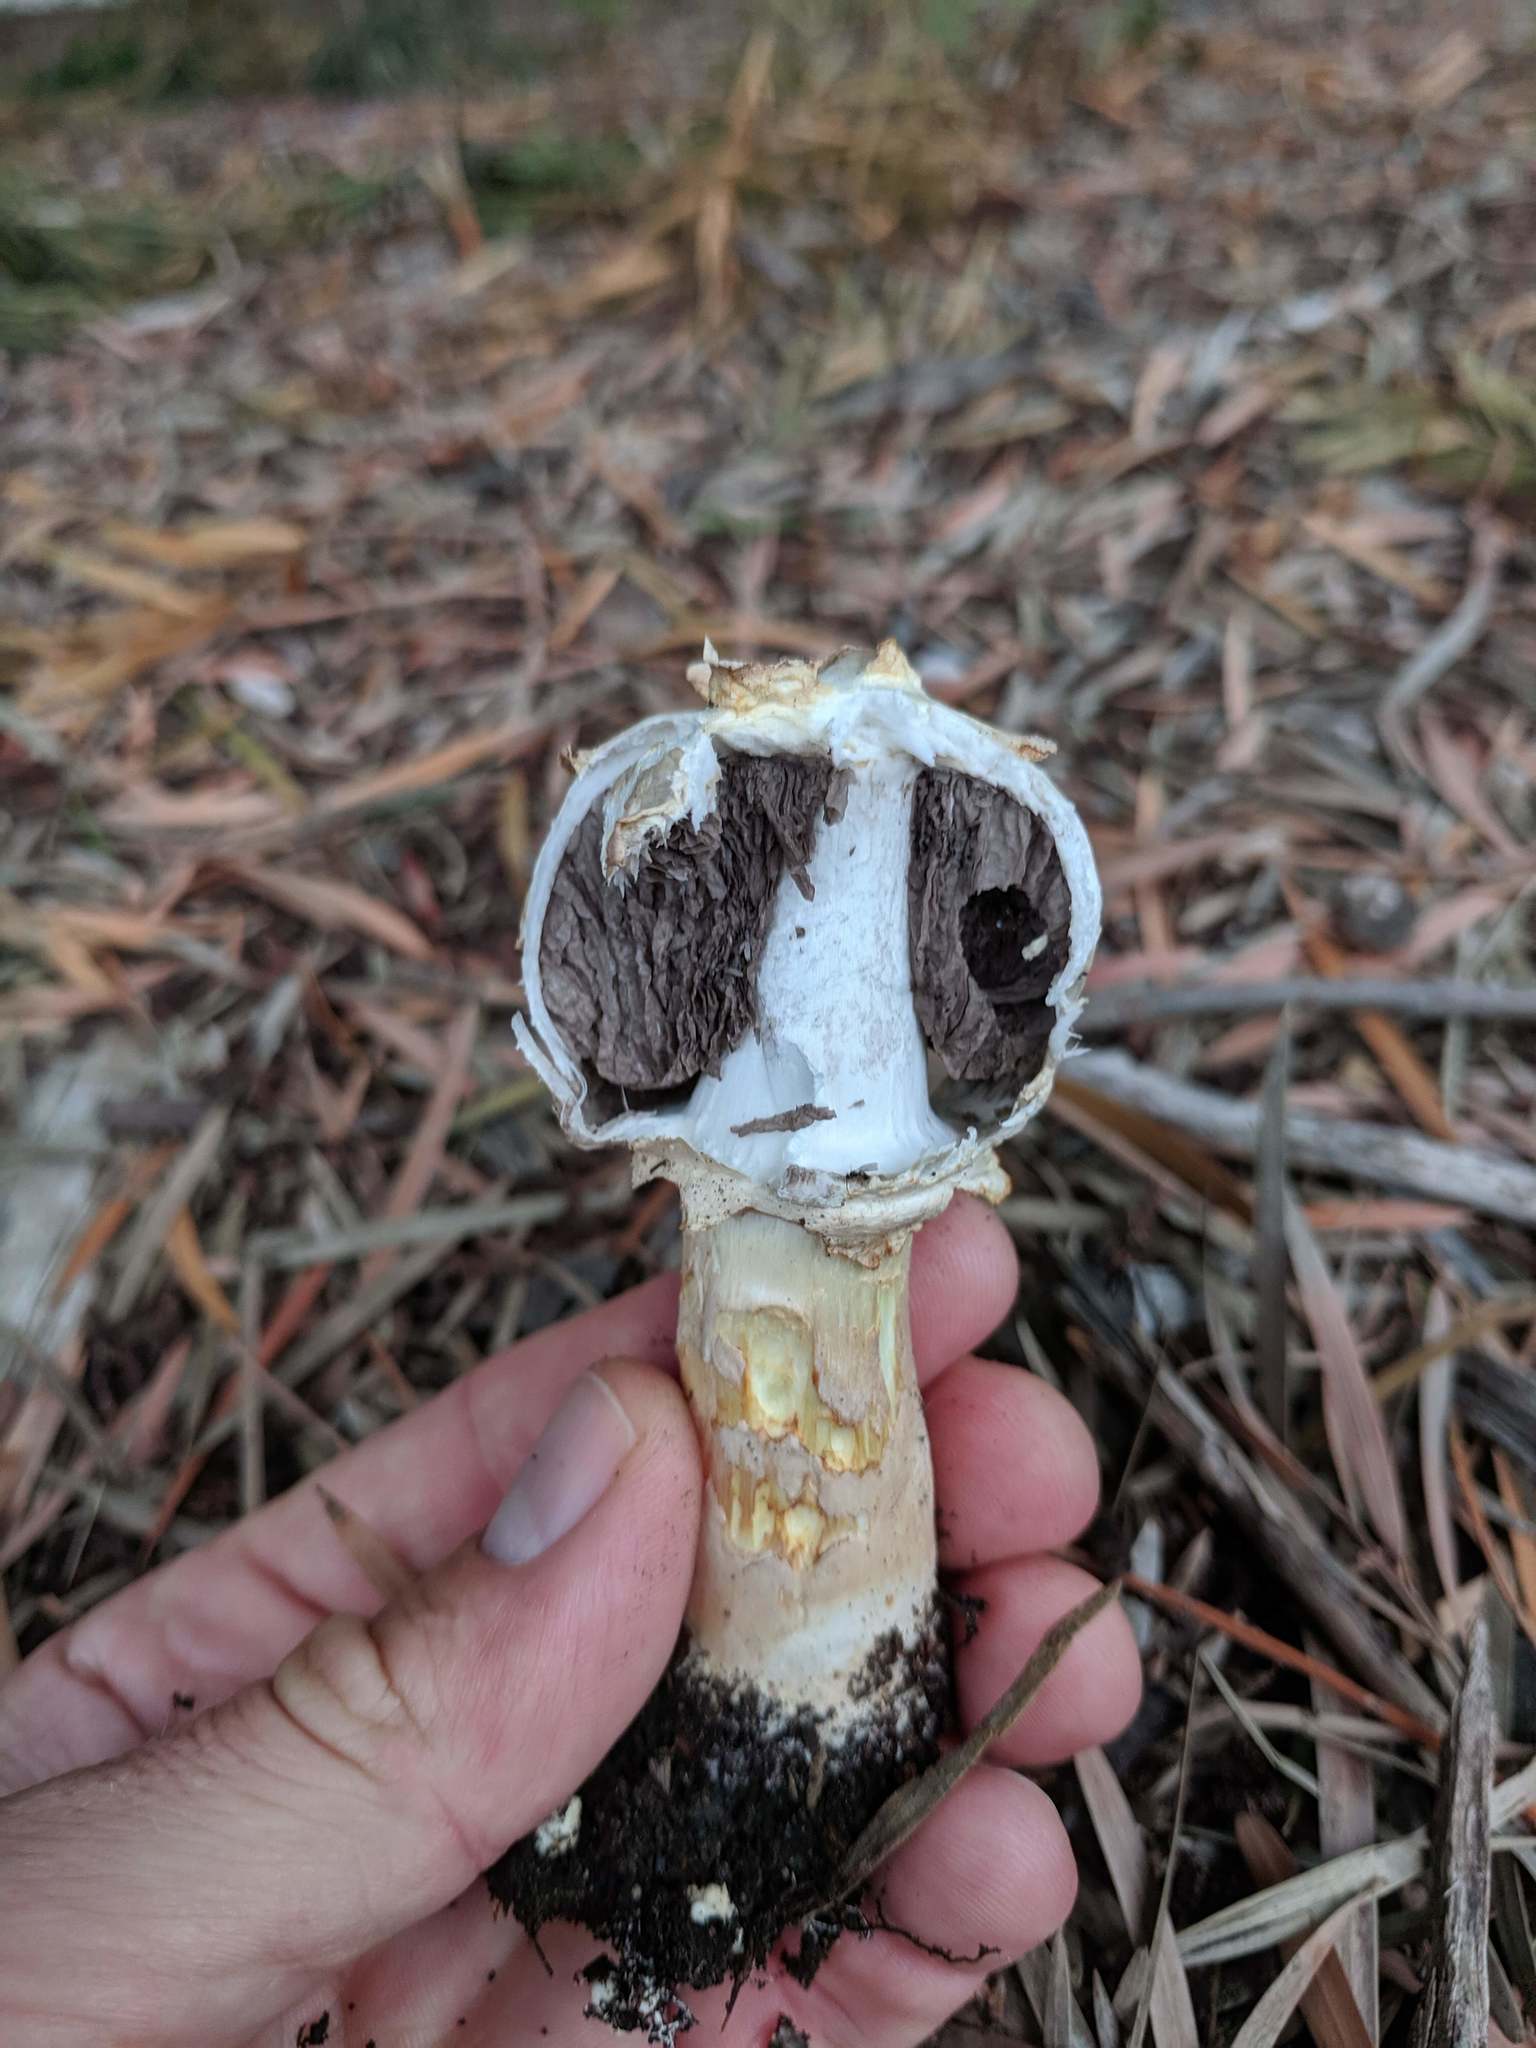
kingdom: Fungi
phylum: Basidiomycota
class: Agaricomycetes
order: Agaricales
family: Agaricaceae
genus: Agaricus
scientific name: Agaricus deserticola
